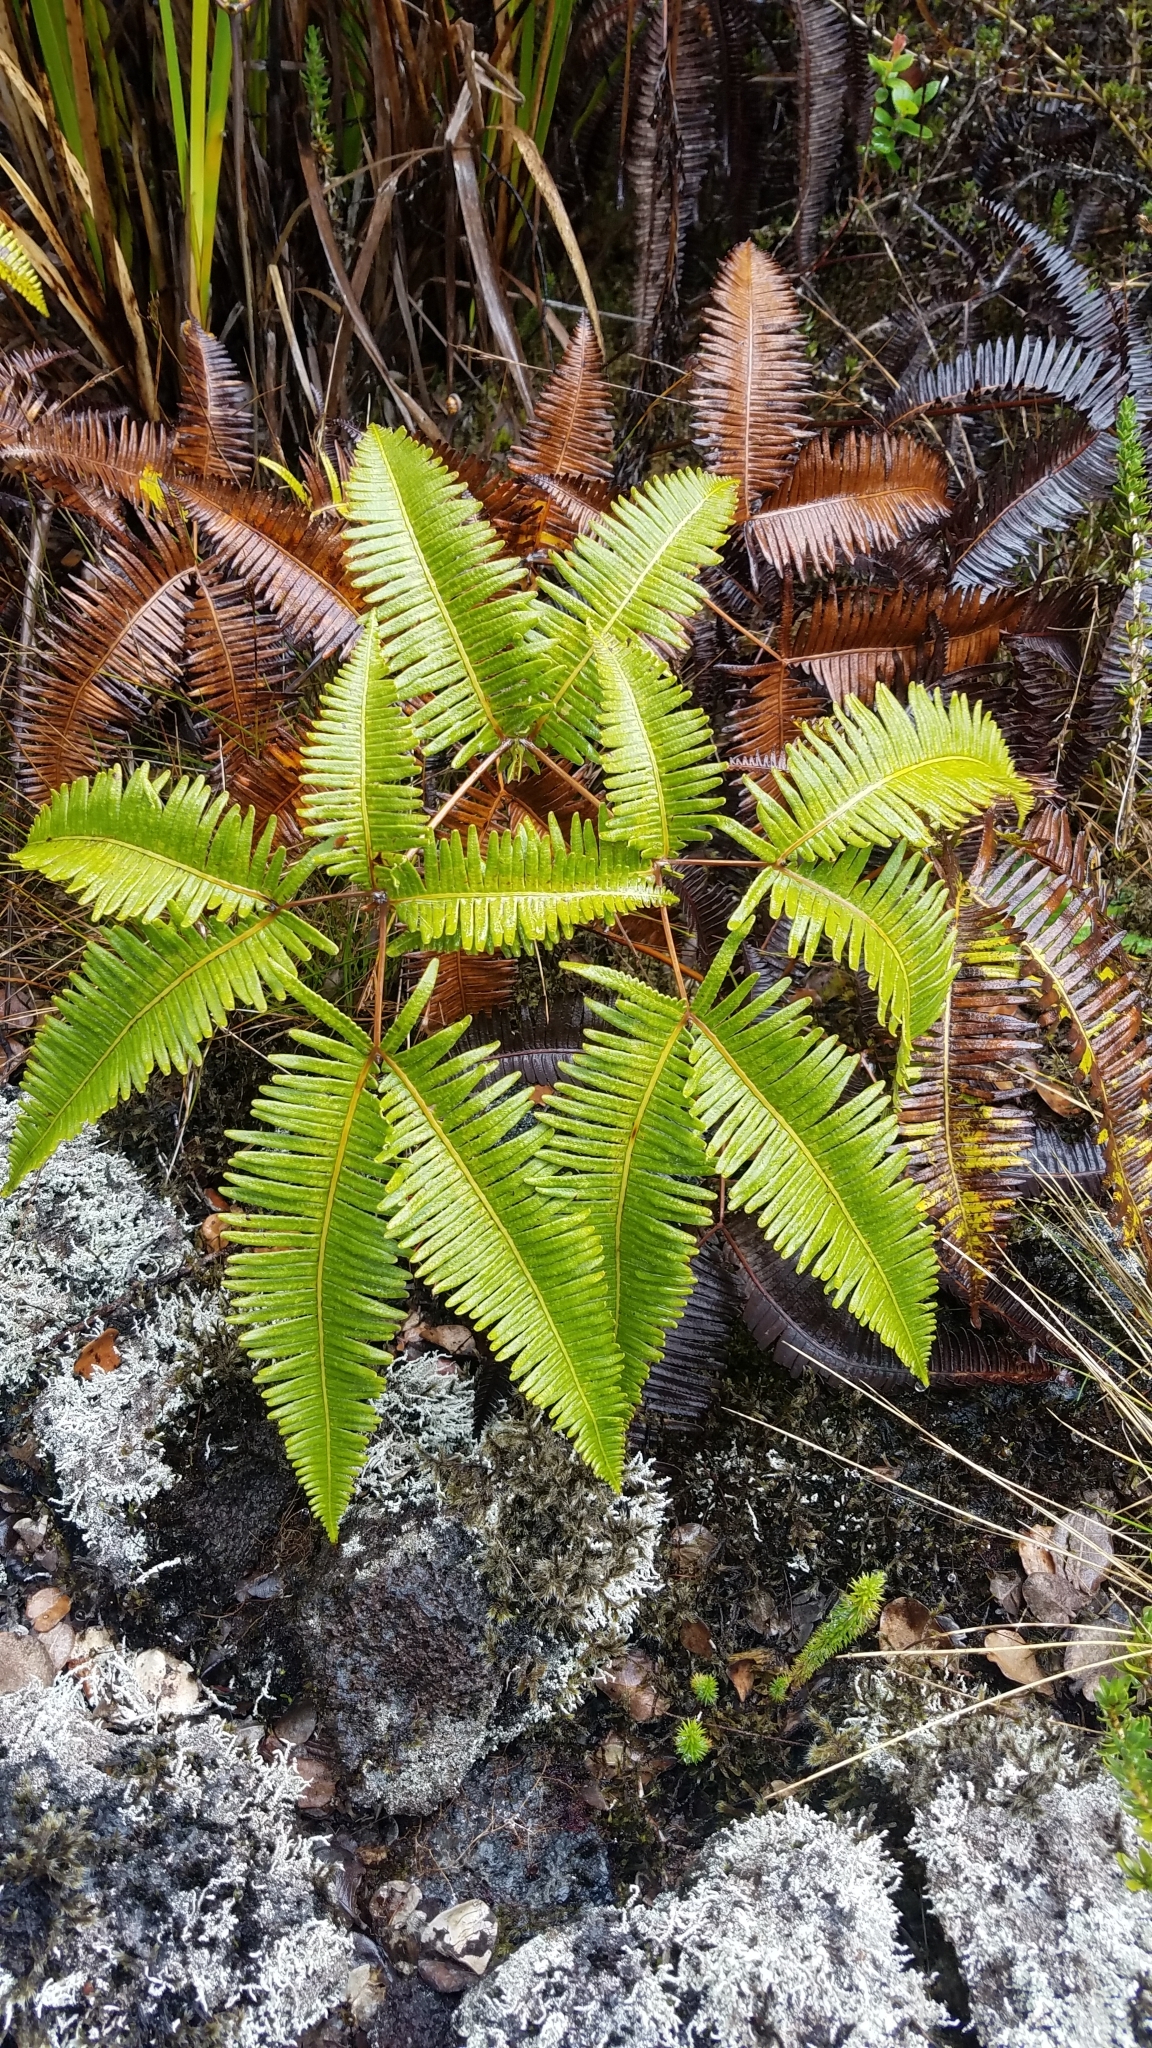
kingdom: Plantae
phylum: Tracheophyta
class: Polypodiopsida
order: Gleicheniales
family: Gleicheniaceae
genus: Dicranopteris
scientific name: Dicranopteris linearis
